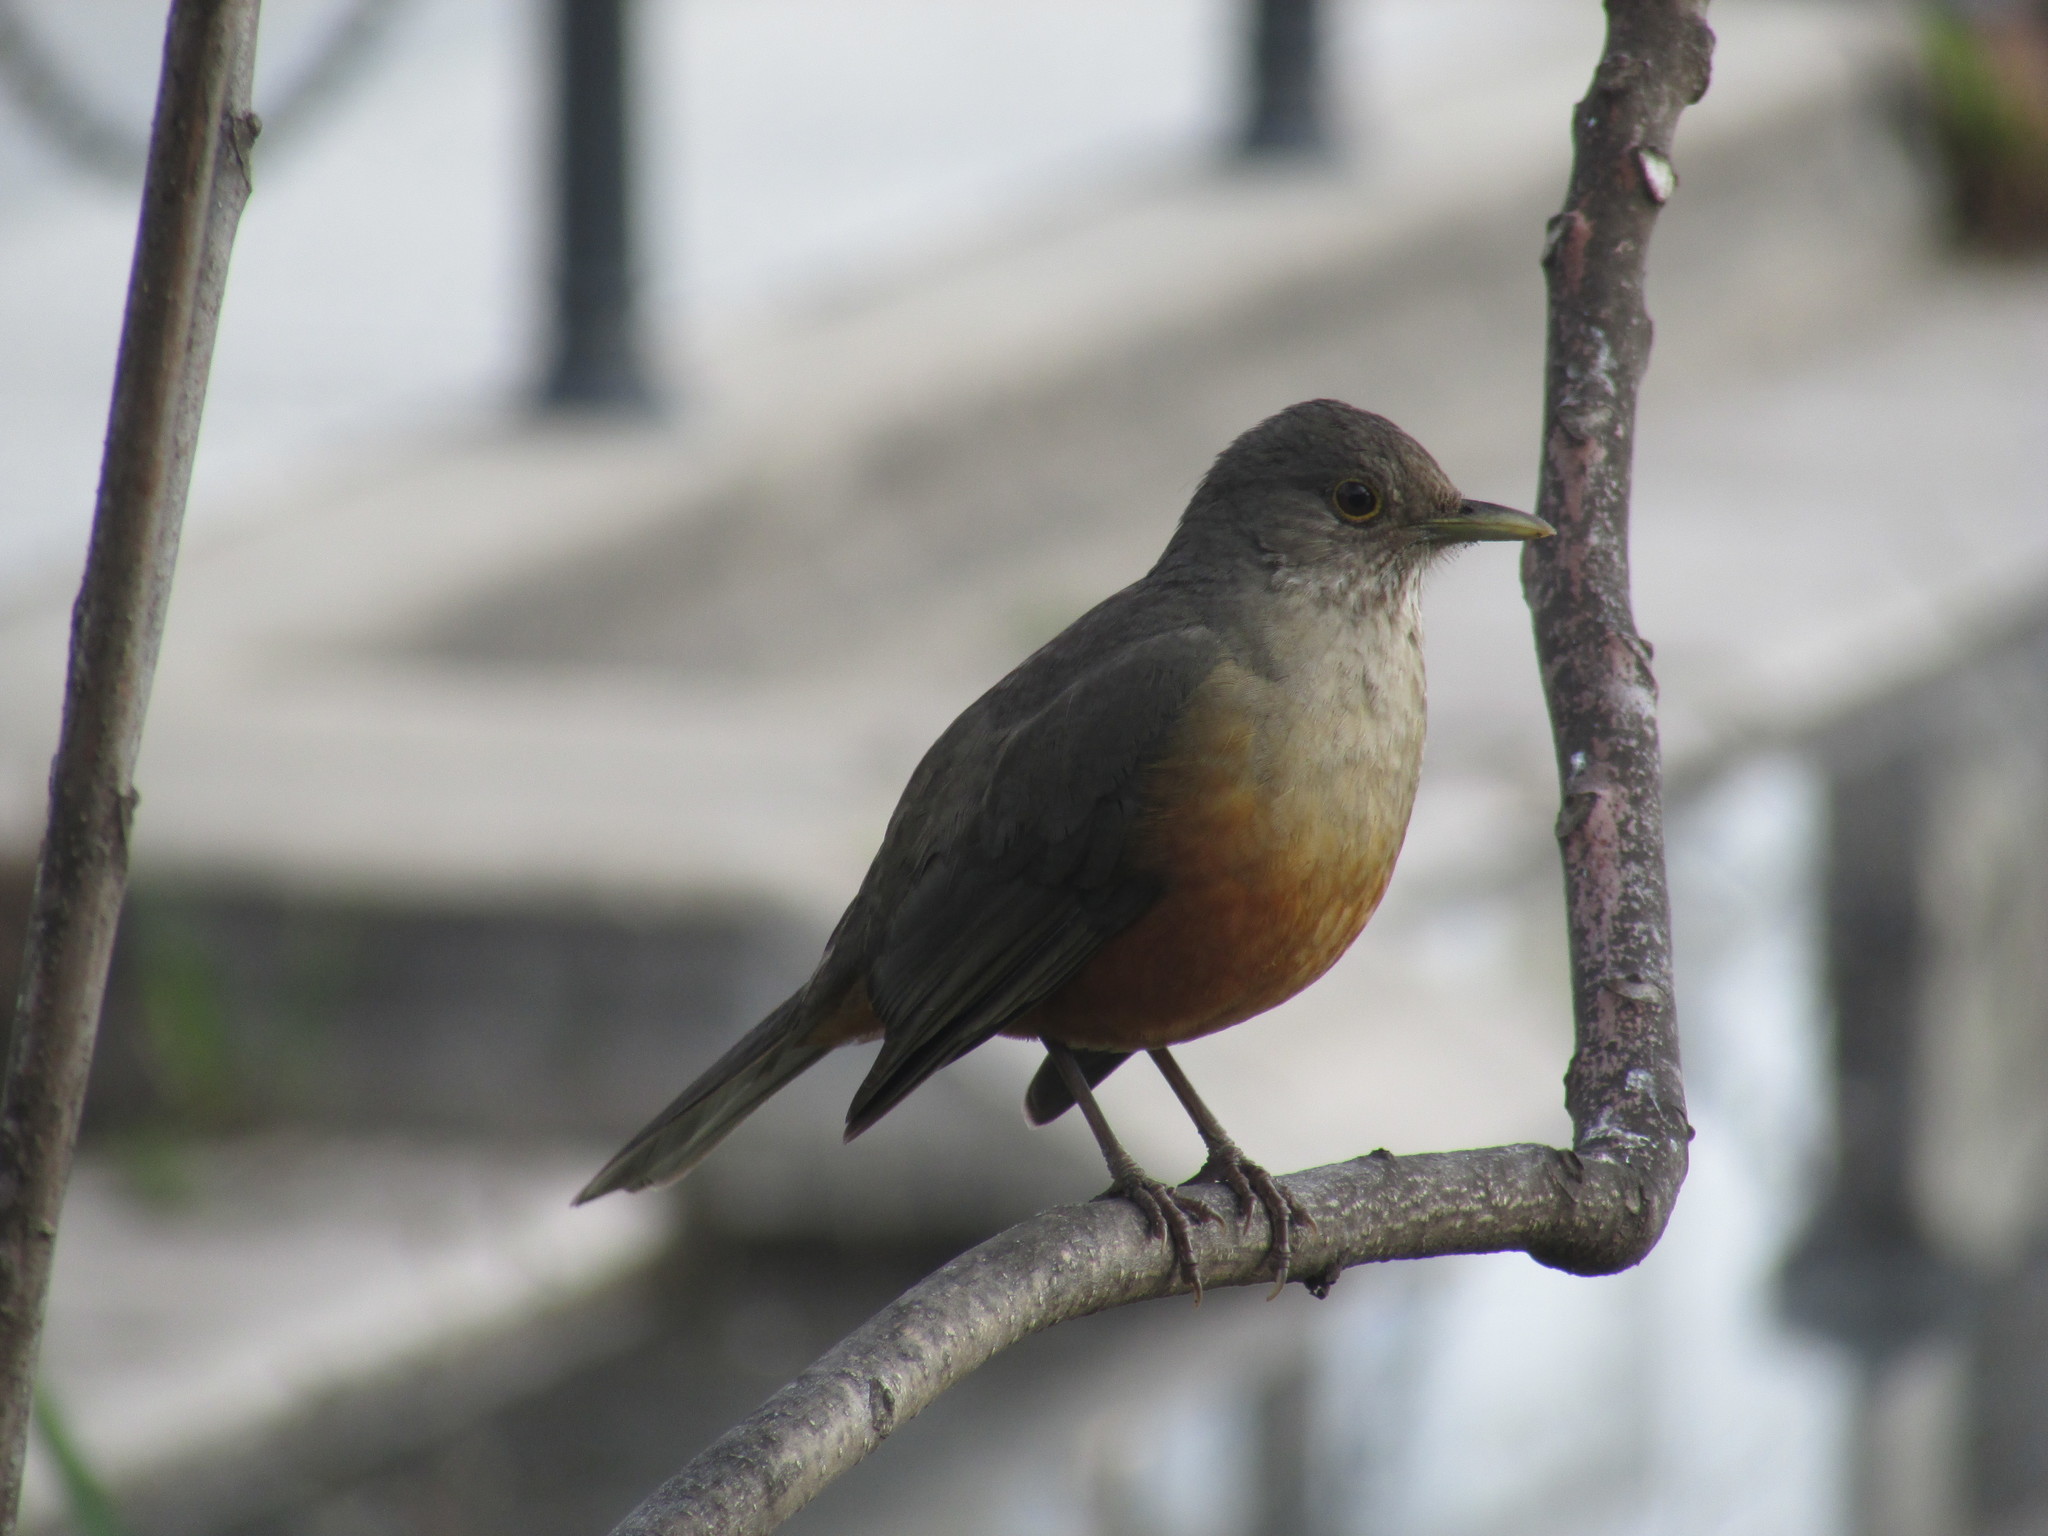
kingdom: Animalia
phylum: Chordata
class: Aves
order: Passeriformes
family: Turdidae
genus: Turdus
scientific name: Turdus rufiventris
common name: Rufous-bellied thrush
